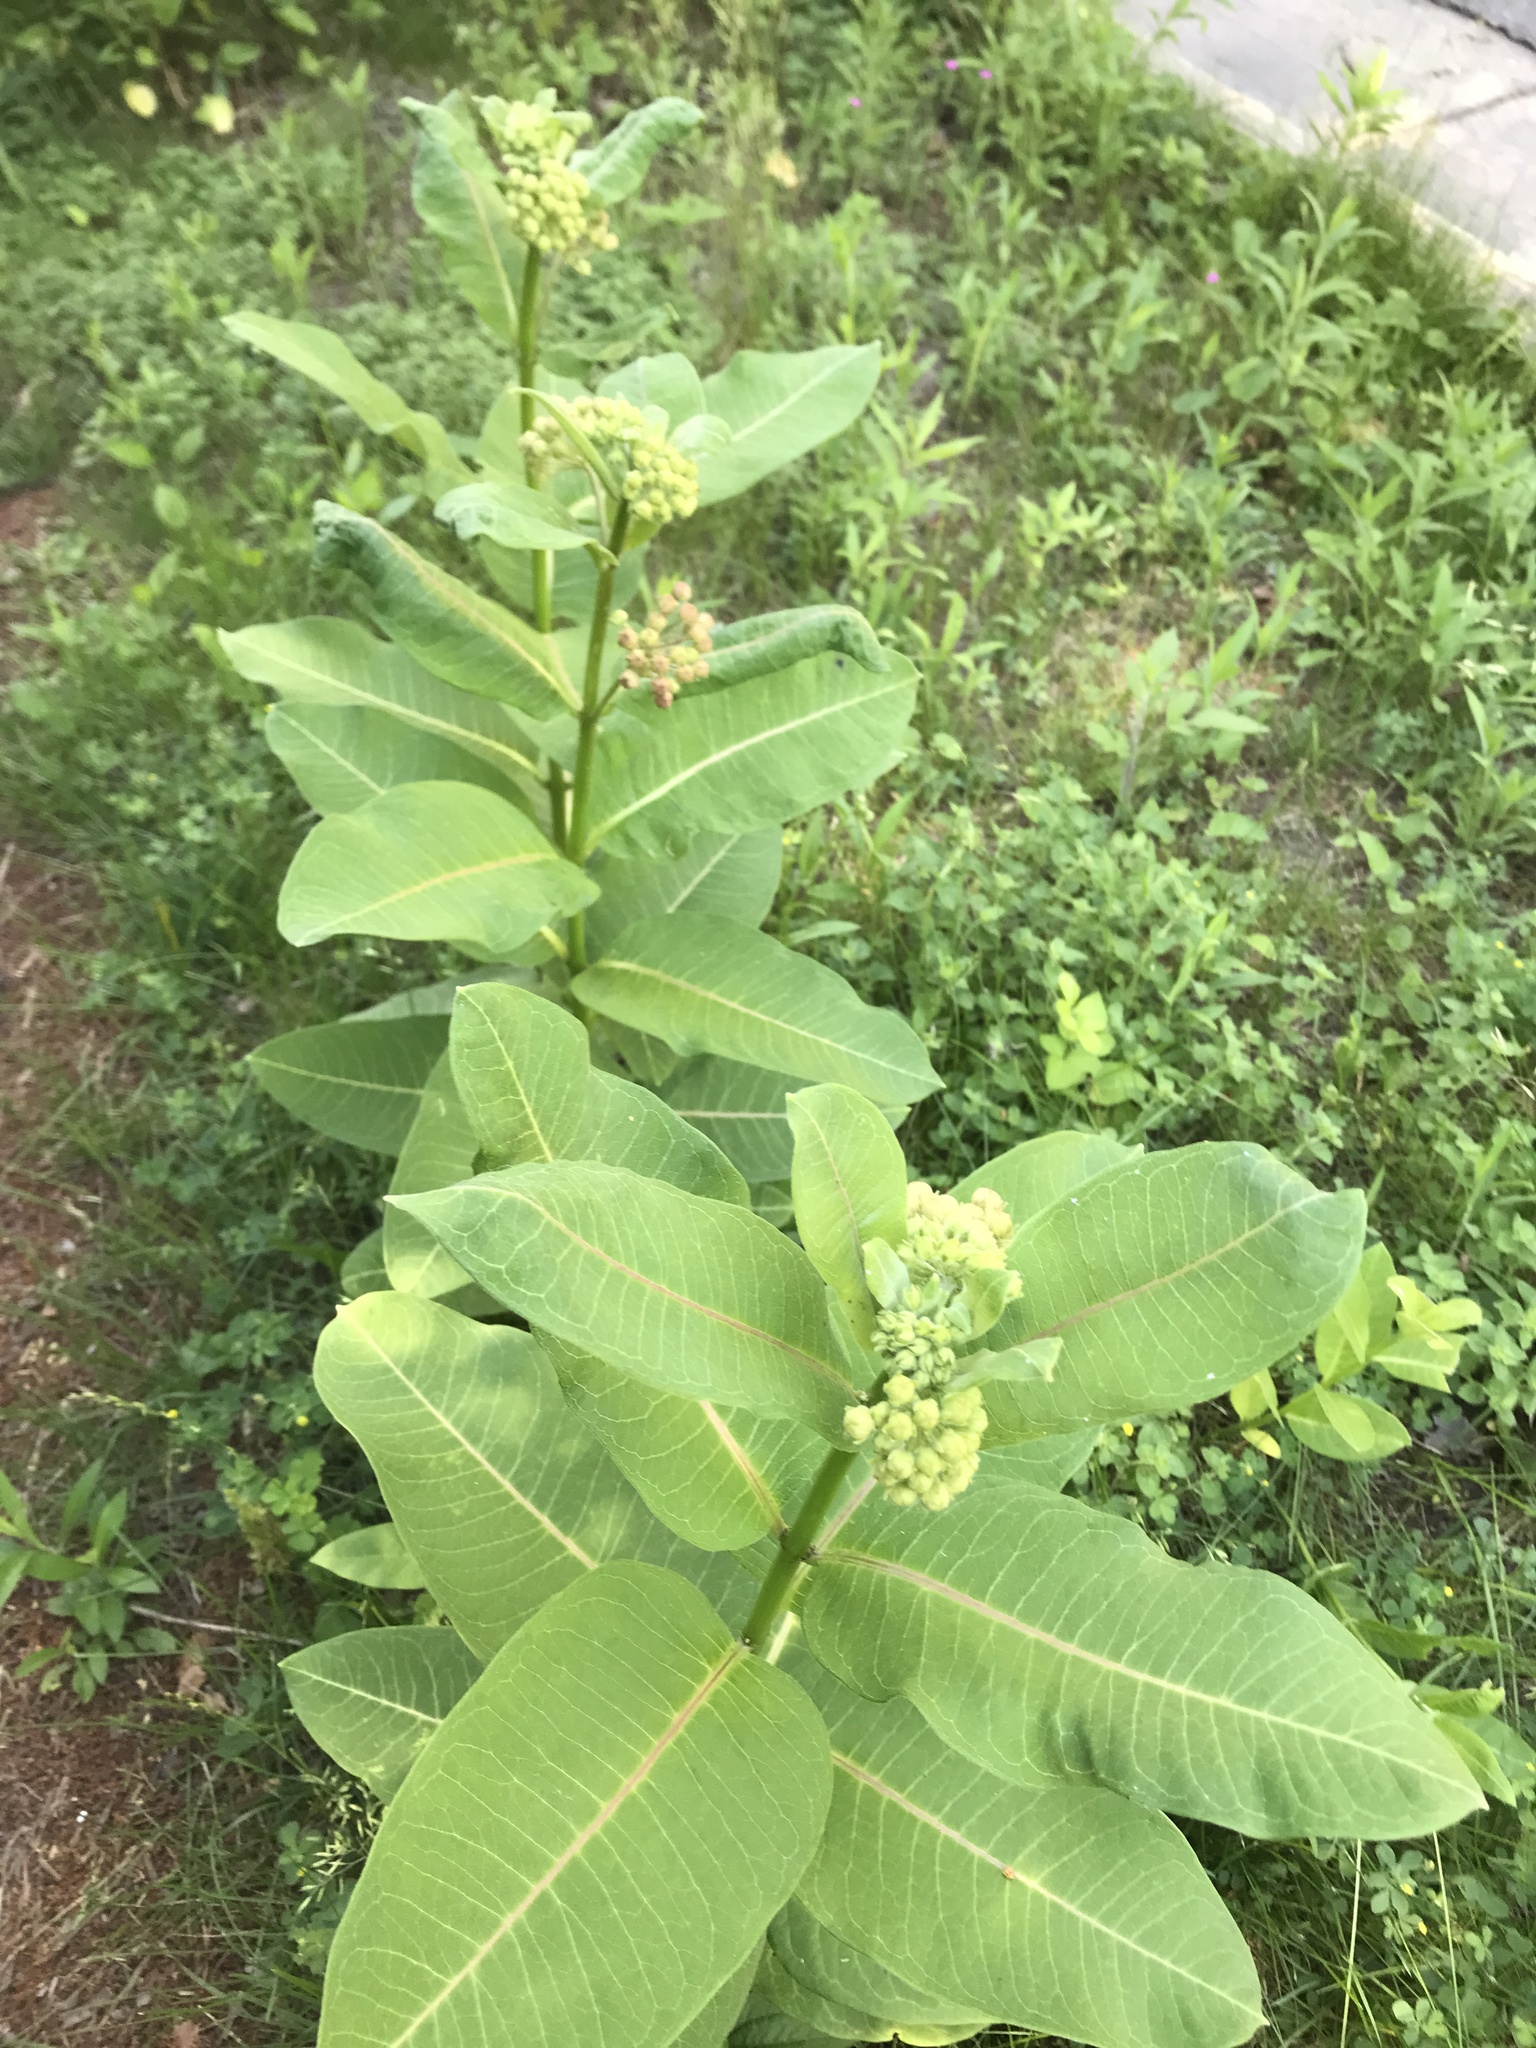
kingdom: Plantae
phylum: Tracheophyta
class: Magnoliopsida
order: Gentianales
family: Apocynaceae
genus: Asclepias
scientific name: Asclepias syriaca
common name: Common milkweed
